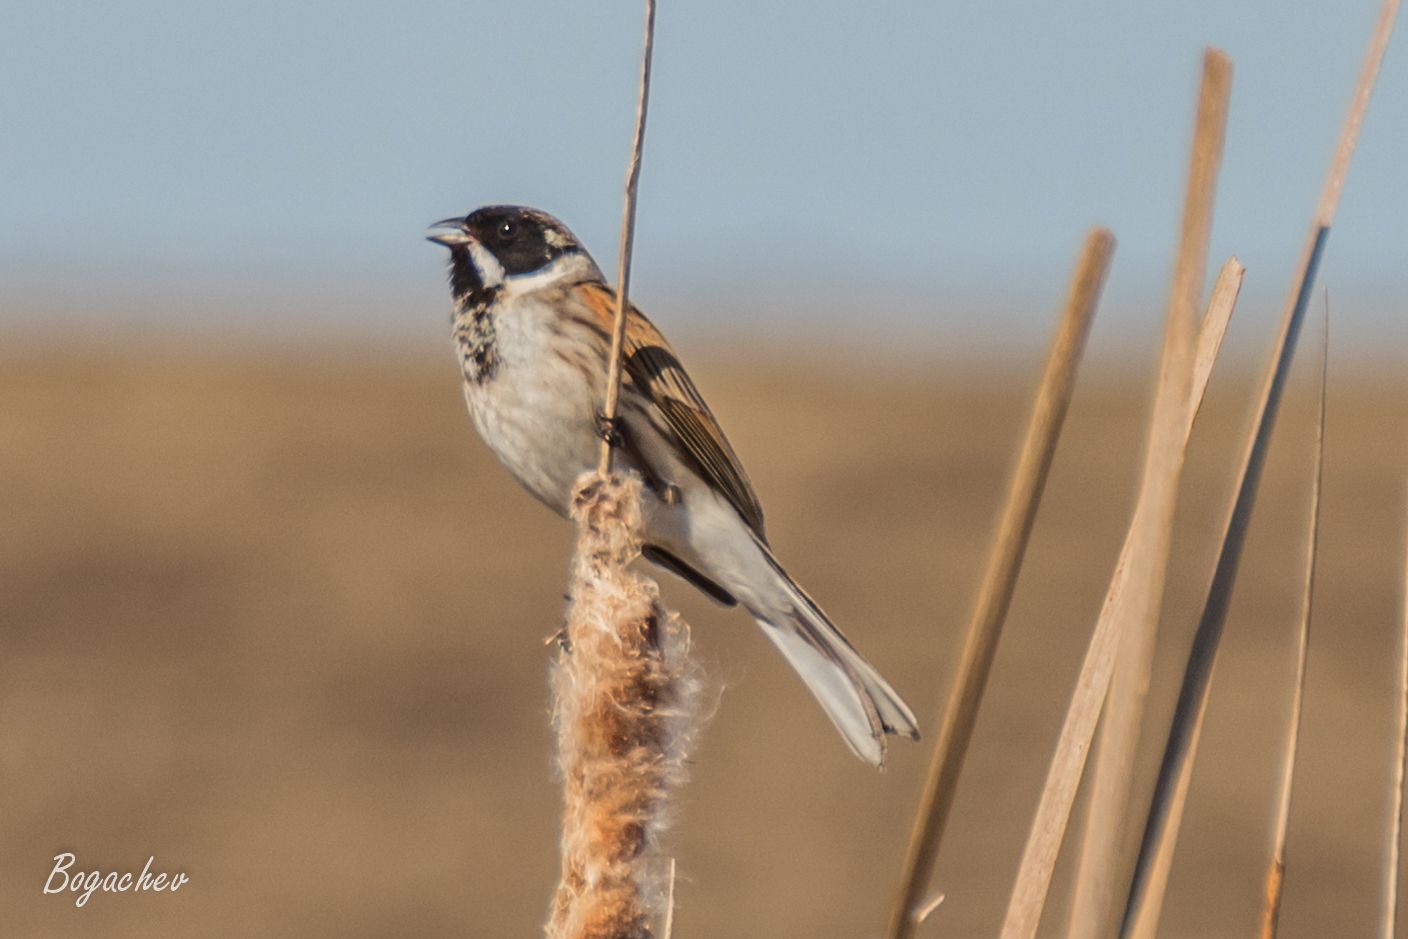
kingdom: Animalia
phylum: Chordata
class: Aves
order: Passeriformes
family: Emberizidae
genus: Emberiza
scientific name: Emberiza schoeniclus
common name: Reed bunting
